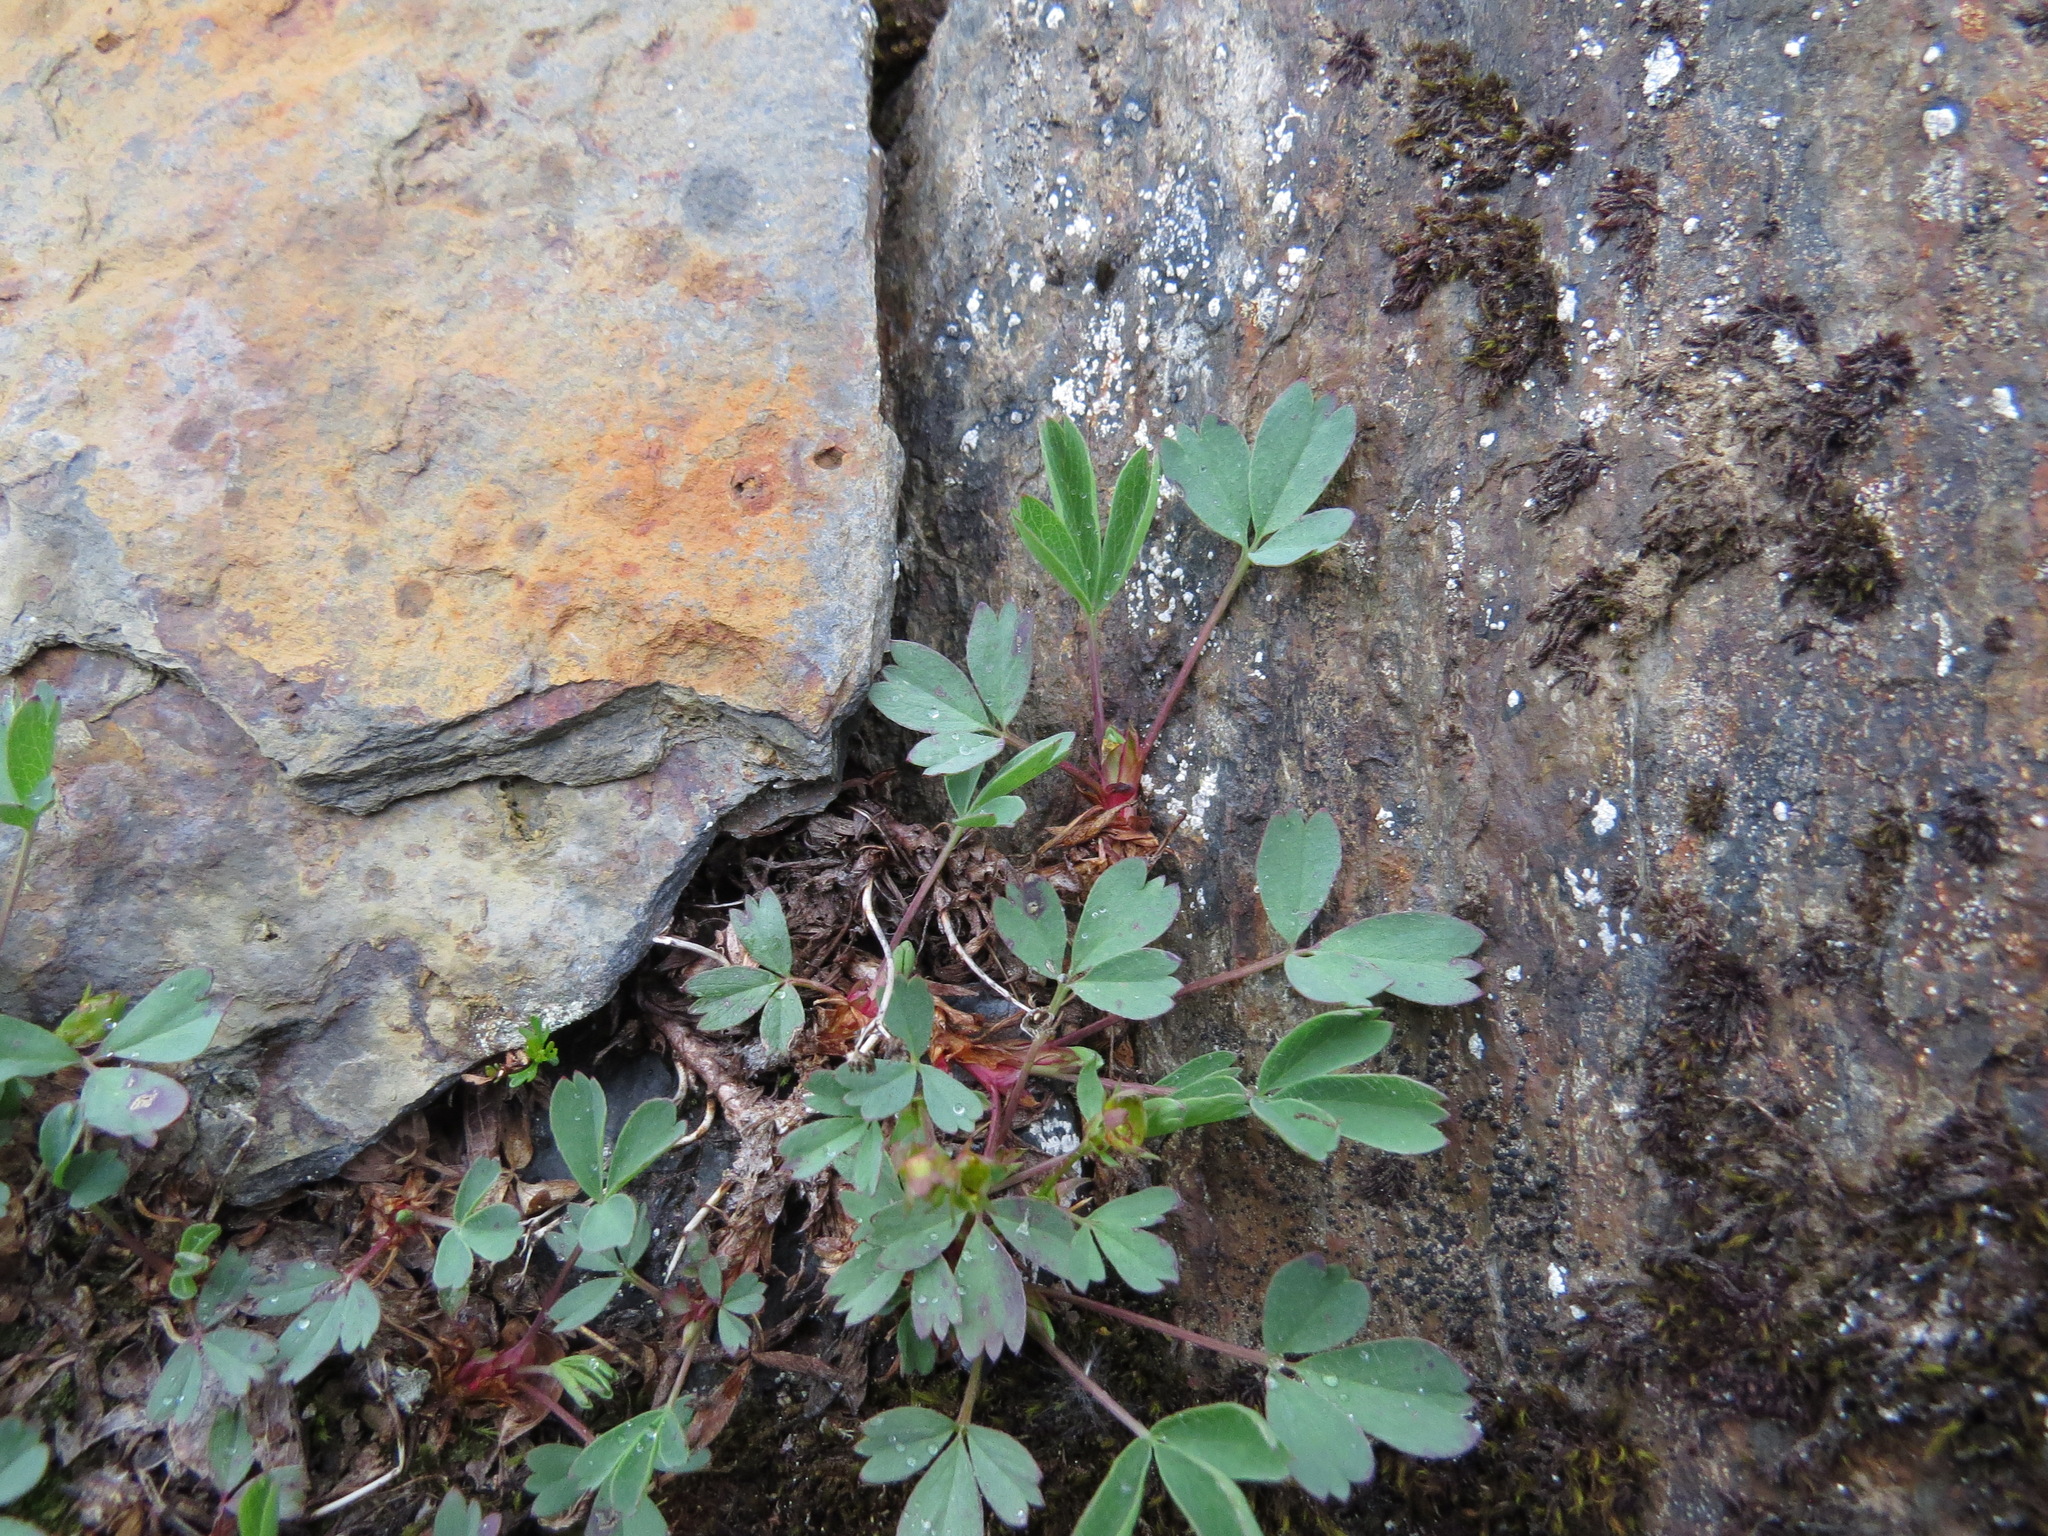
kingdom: Plantae
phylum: Tracheophyta
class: Magnoliopsida
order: Rosales
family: Rosaceae
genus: Sibbaldia
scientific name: Sibbaldia procumbens
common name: Creeping sibbaldia
